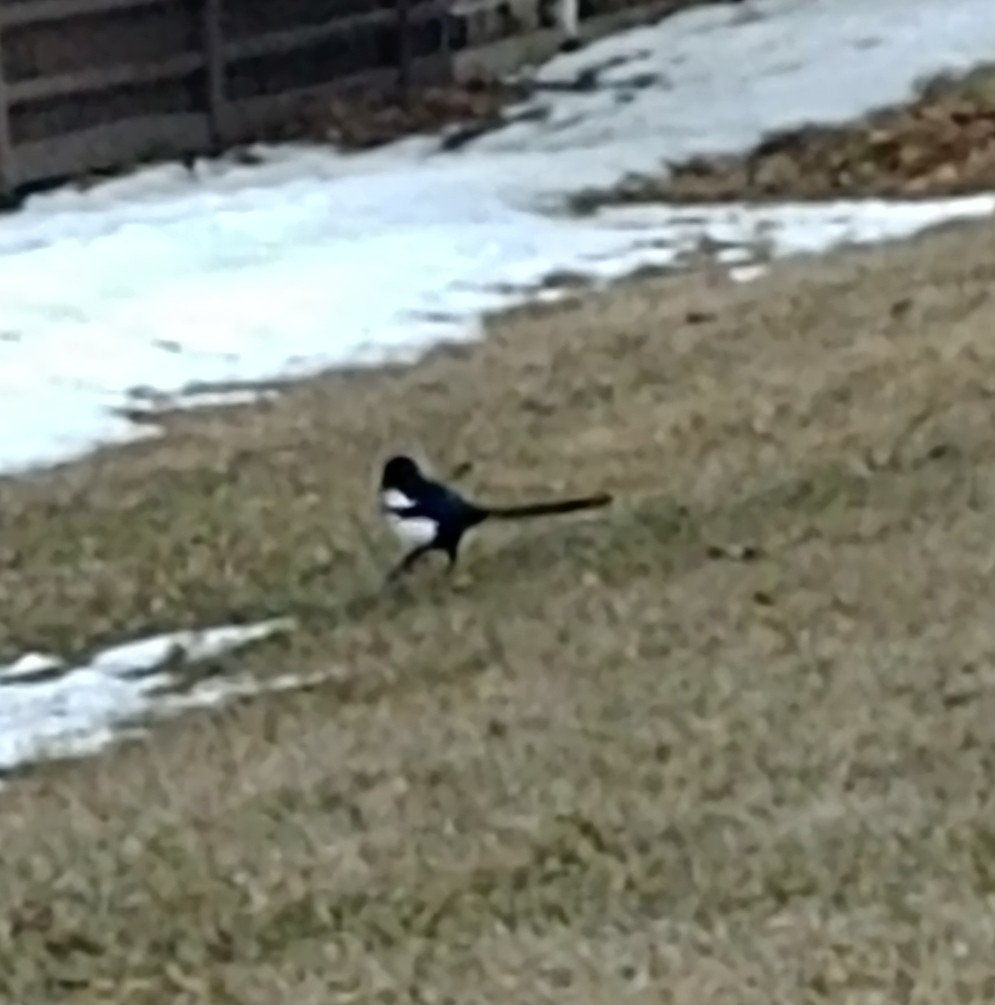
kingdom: Animalia
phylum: Chordata
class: Aves
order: Passeriformes
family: Corvidae
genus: Pica
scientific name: Pica hudsonia
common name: Black-billed magpie
